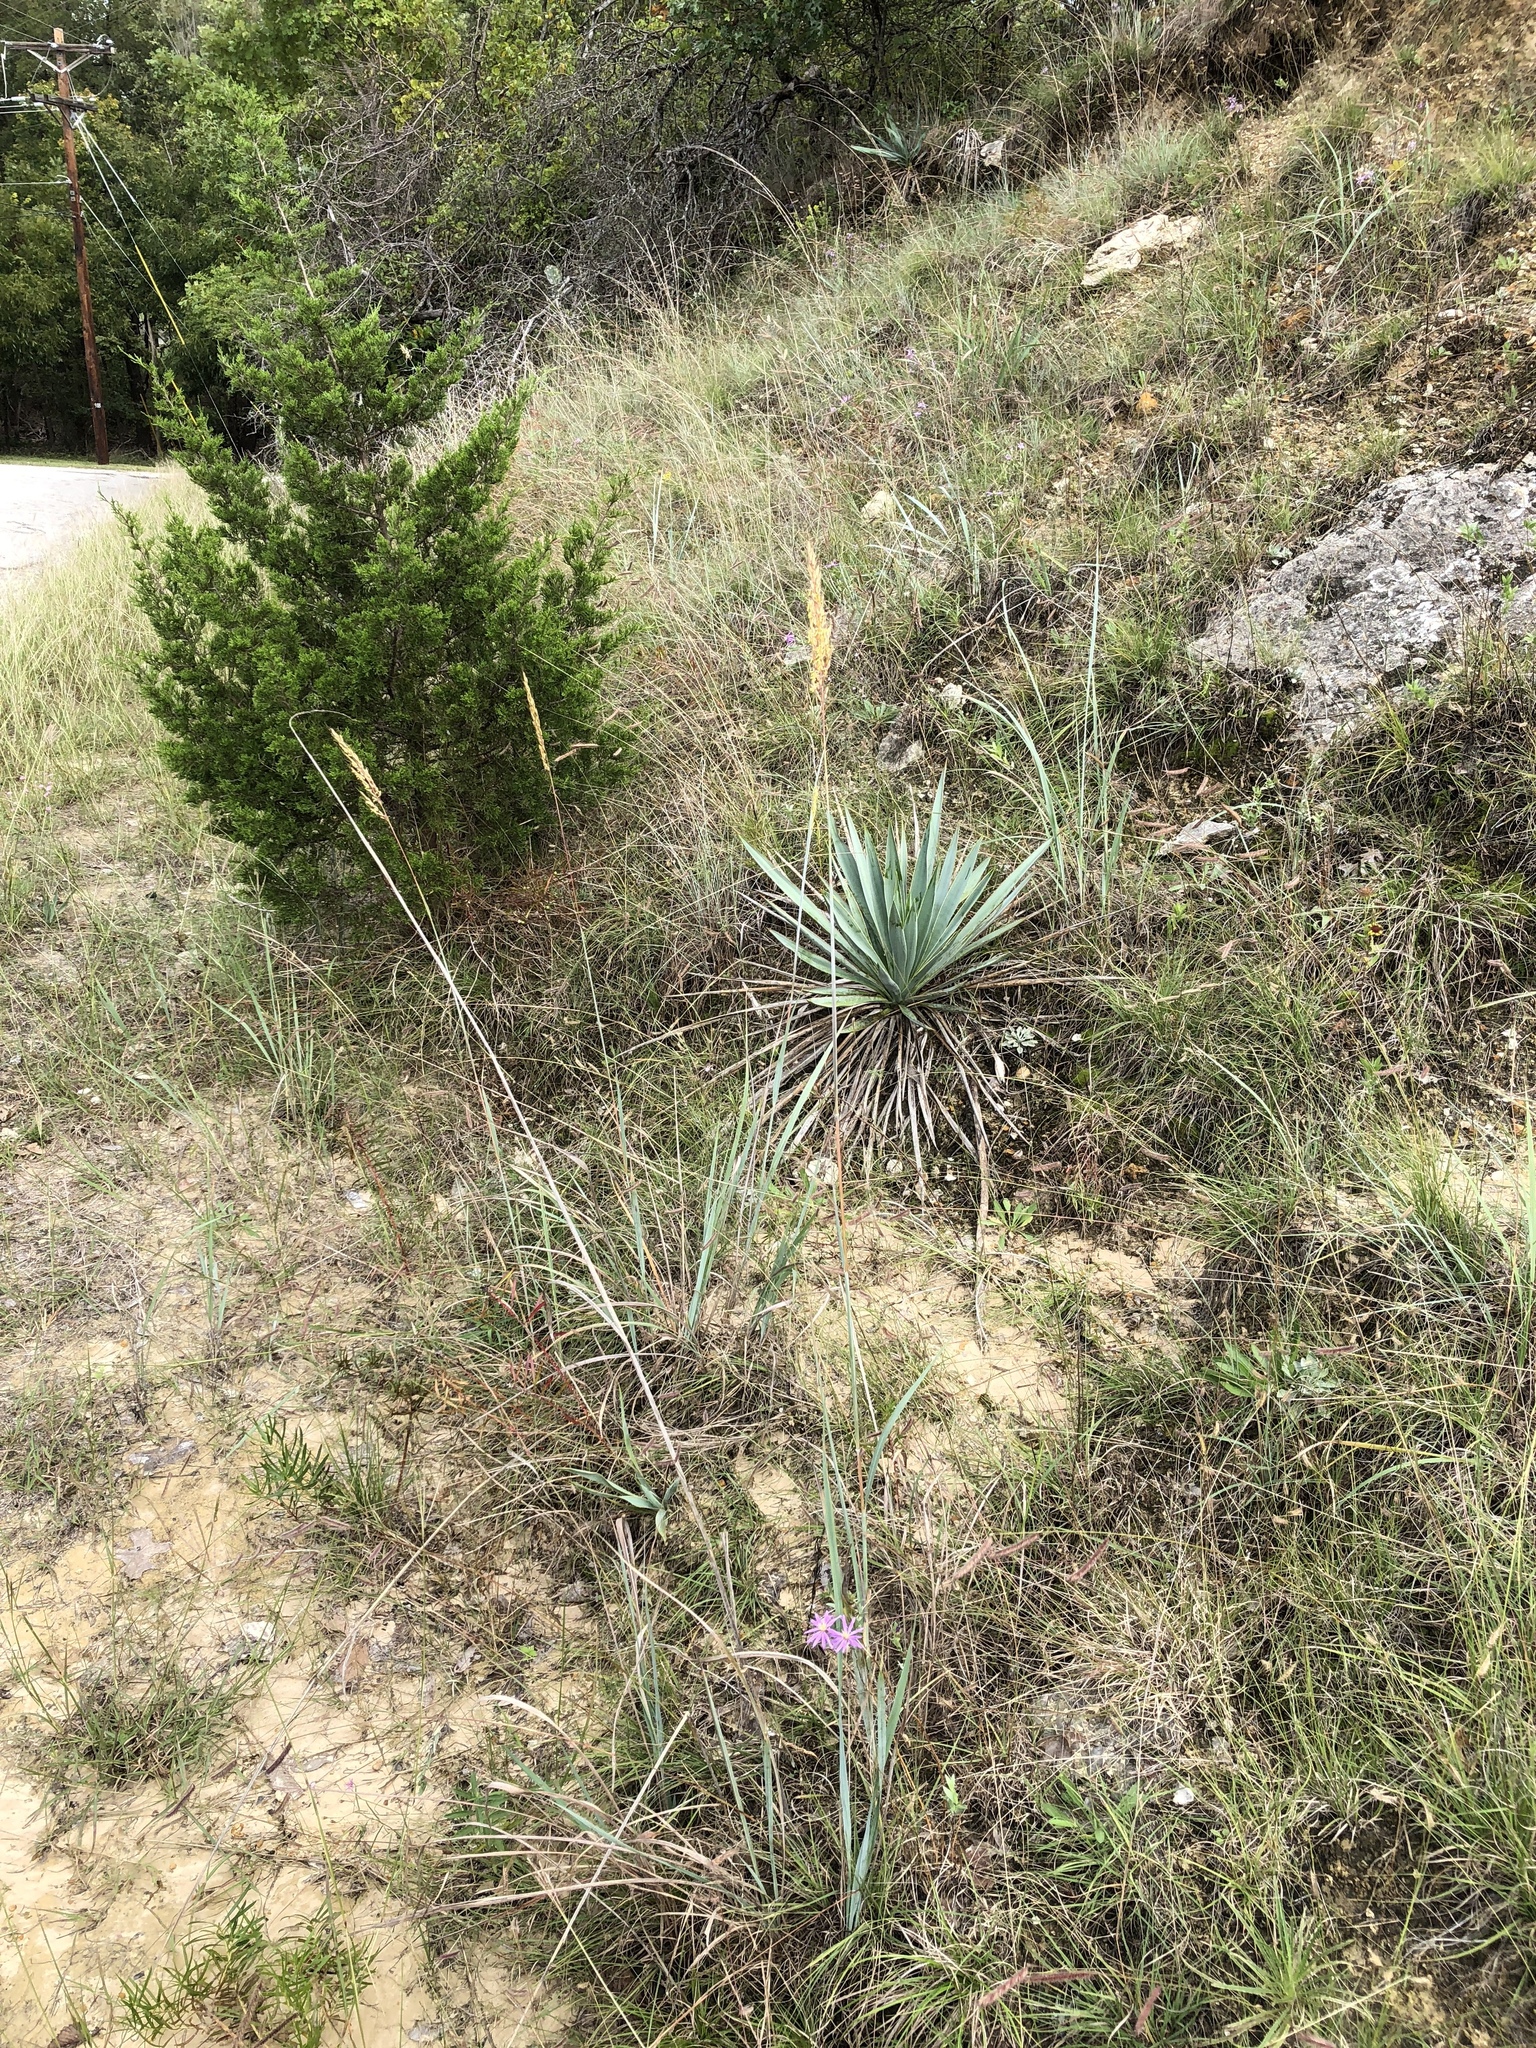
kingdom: Plantae
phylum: Tracheophyta
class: Liliopsida
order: Poales
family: Poaceae
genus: Sorghastrum
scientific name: Sorghastrum nutans
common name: Indian grass
